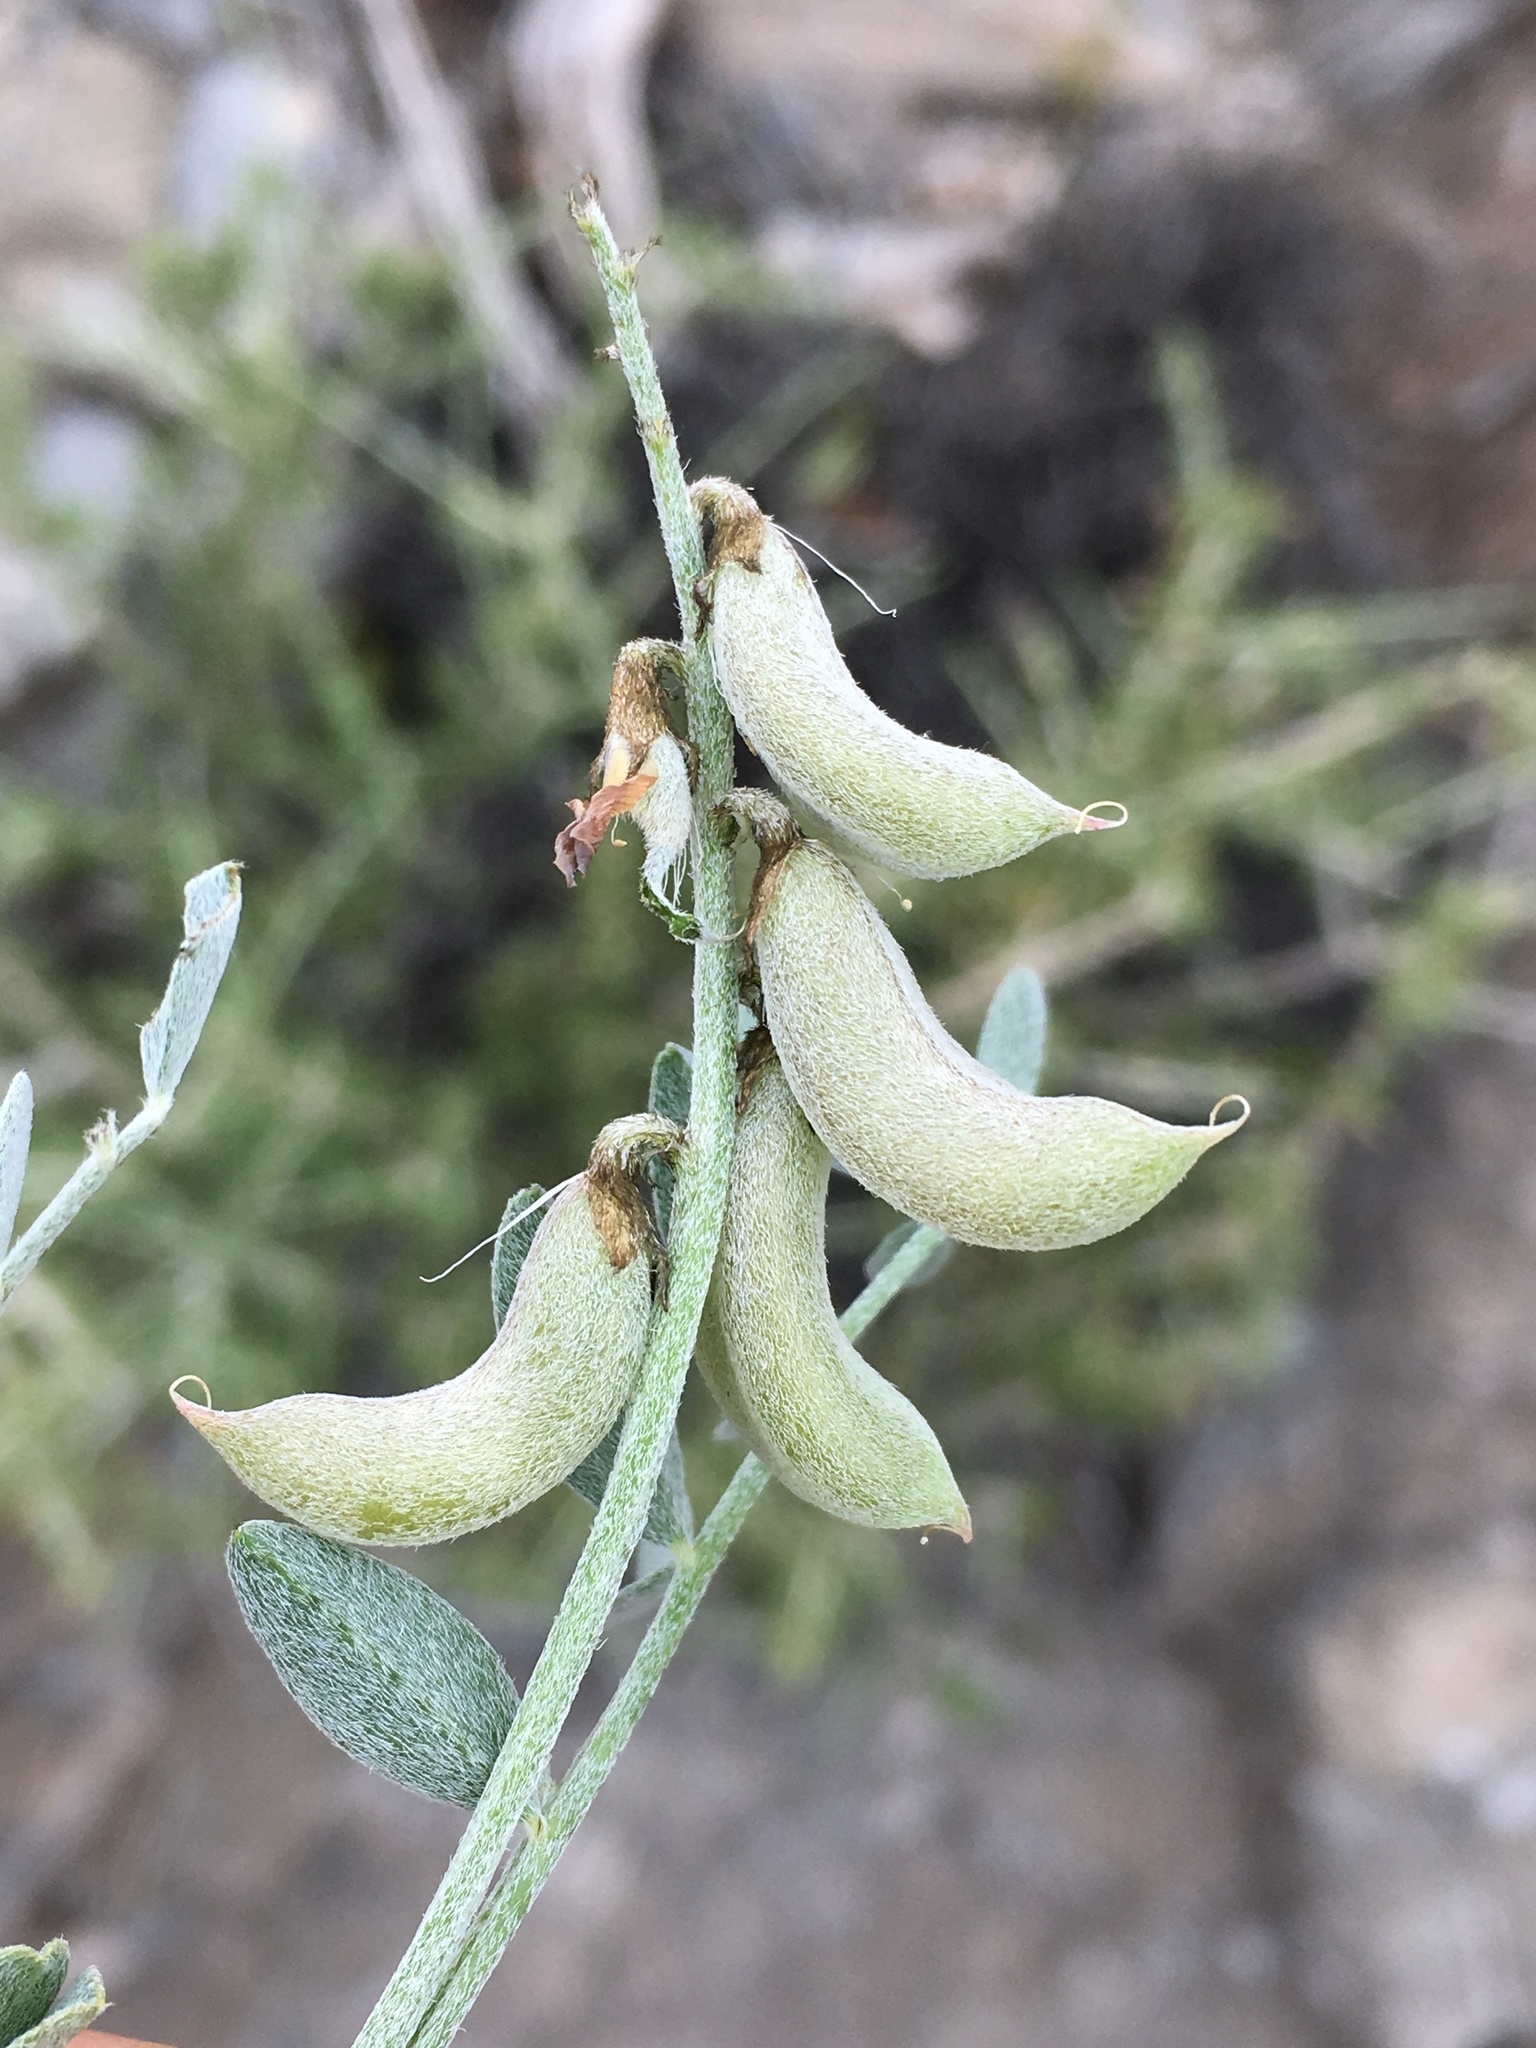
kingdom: Plantae
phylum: Tracheophyta
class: Magnoliopsida
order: Fabales
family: Fabaceae
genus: Astragalus
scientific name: Astragalus mohavensis
